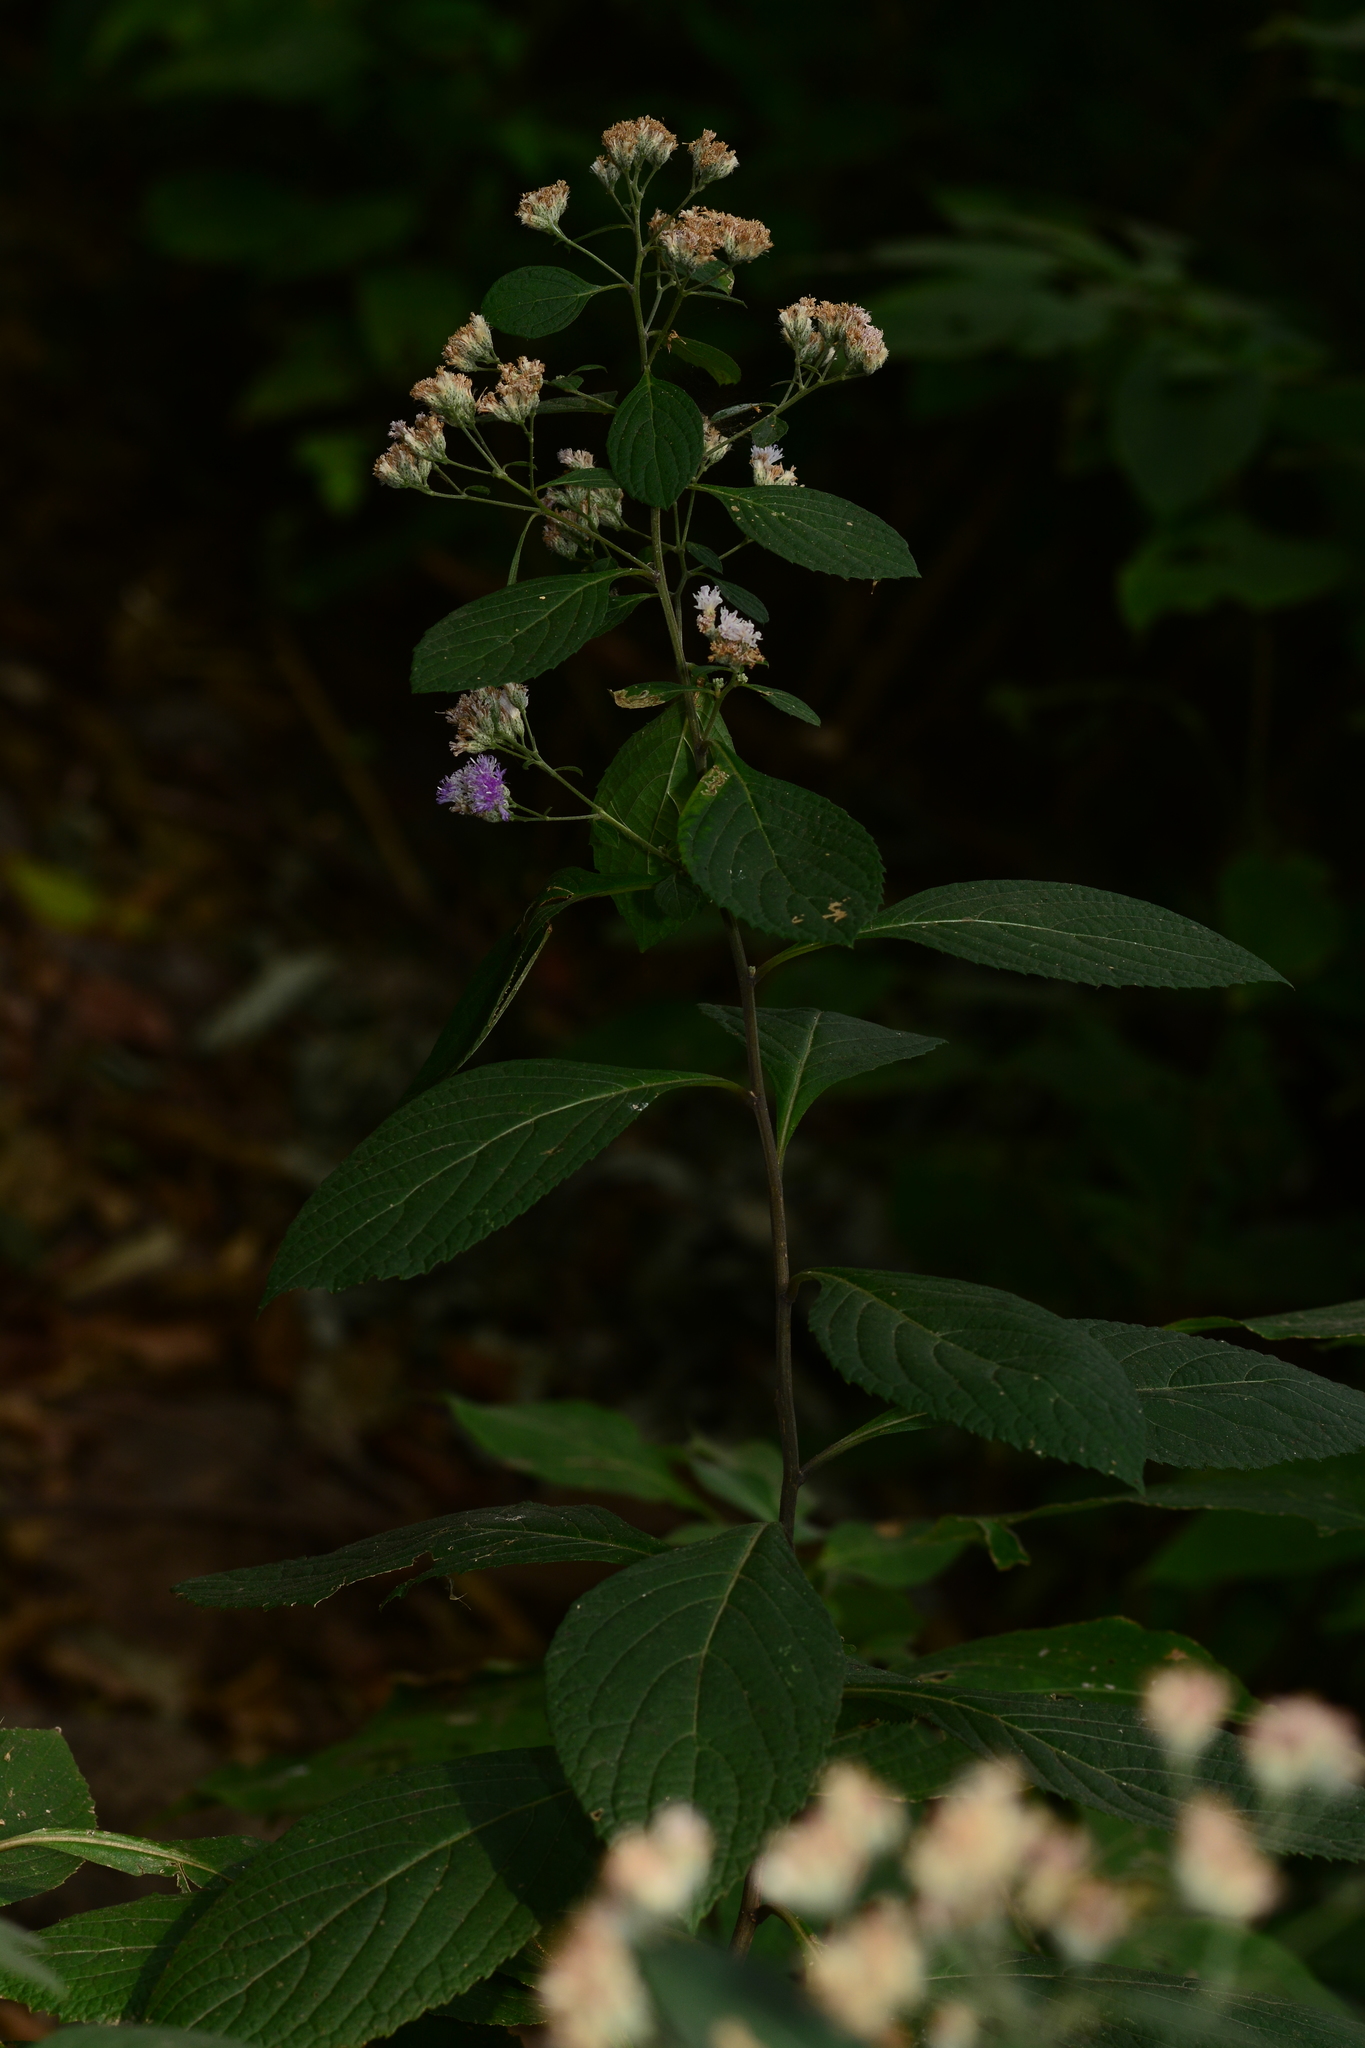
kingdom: Plantae
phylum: Tracheophyta
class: Magnoliopsida
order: Asterales
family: Asteraceae
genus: Acilepis
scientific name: Acilepis divergens
